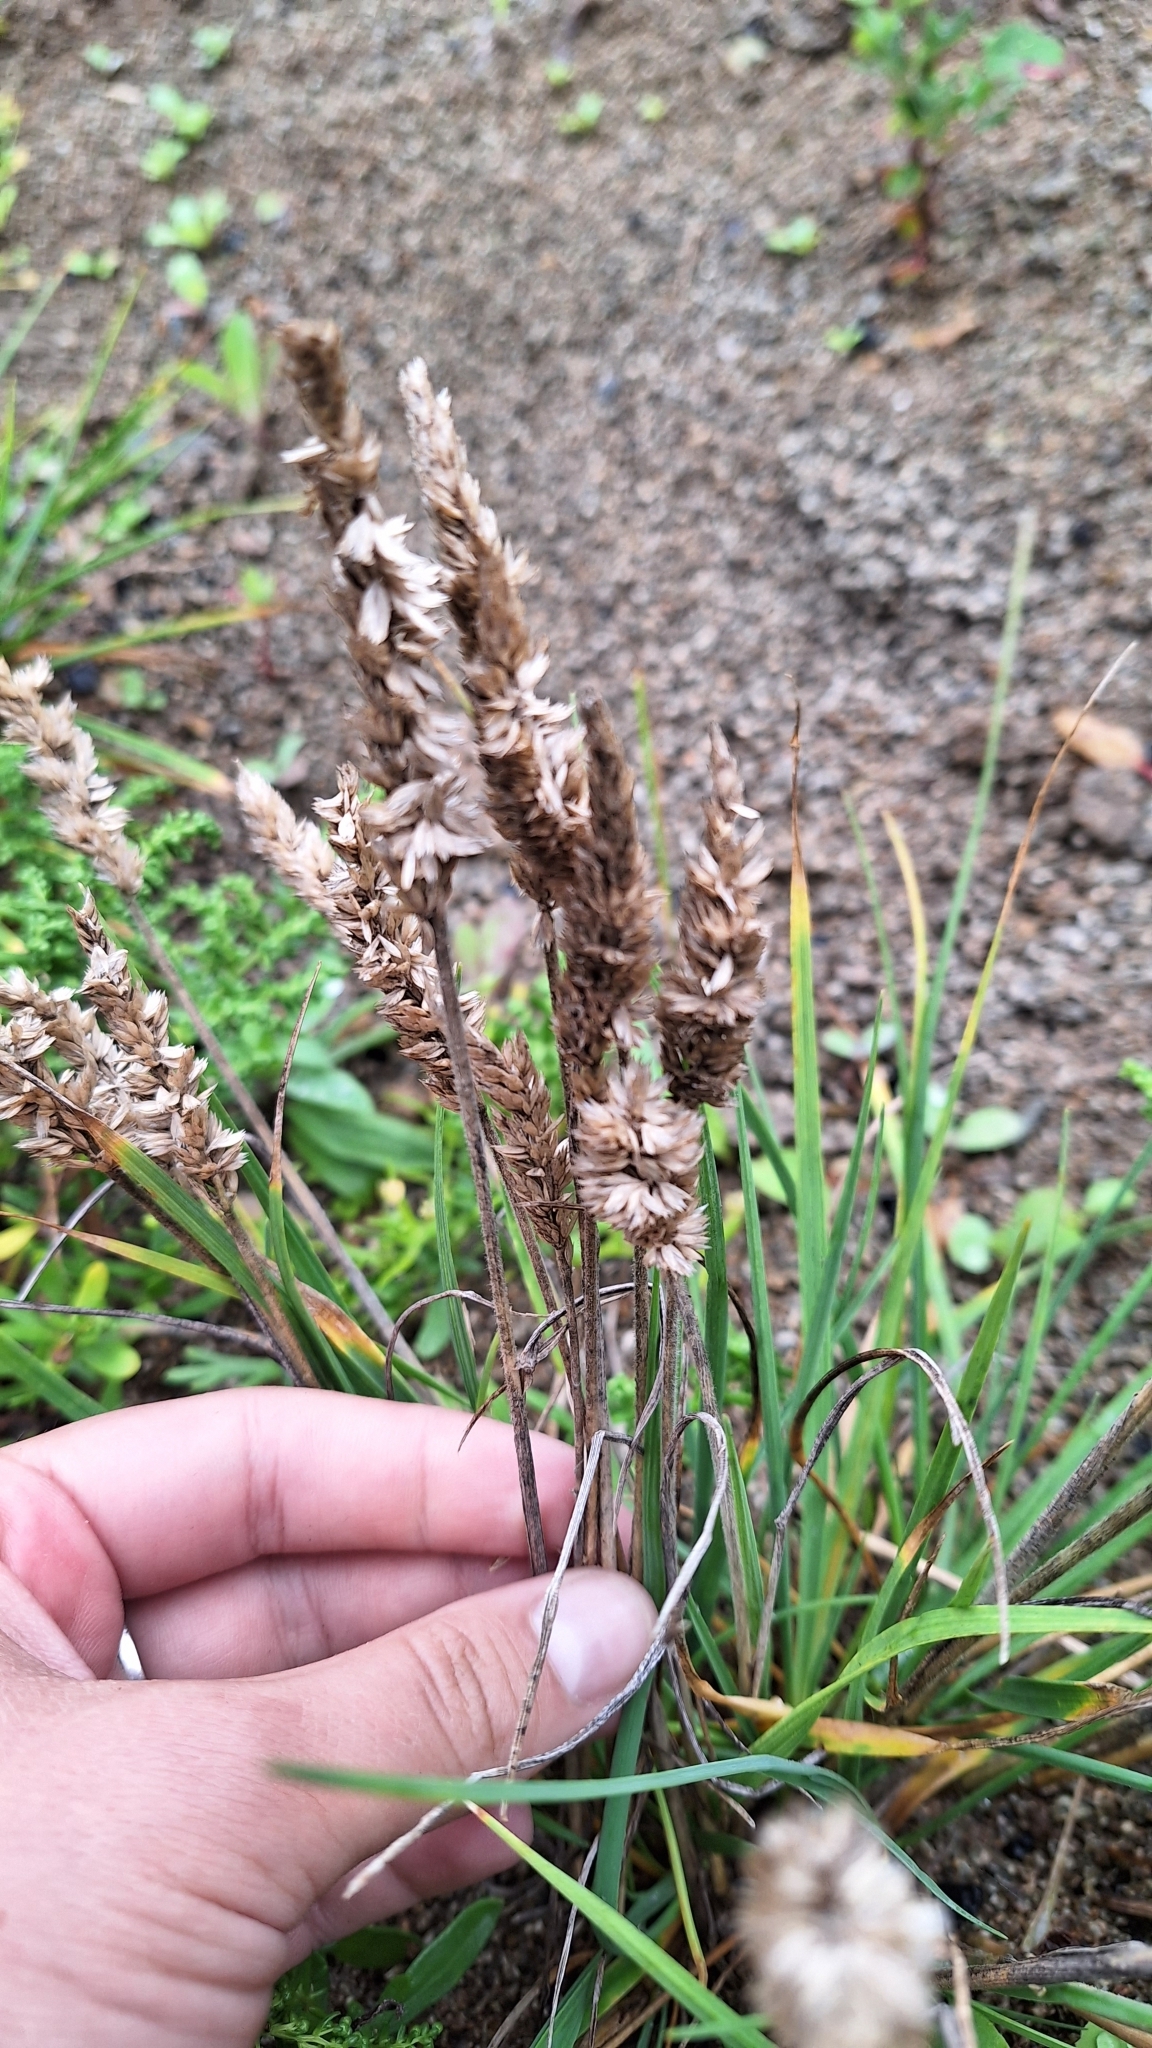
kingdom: Plantae
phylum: Tracheophyta
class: Liliopsida
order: Poales
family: Poaceae
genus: Koeleria
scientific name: Koeleria askoldensis
